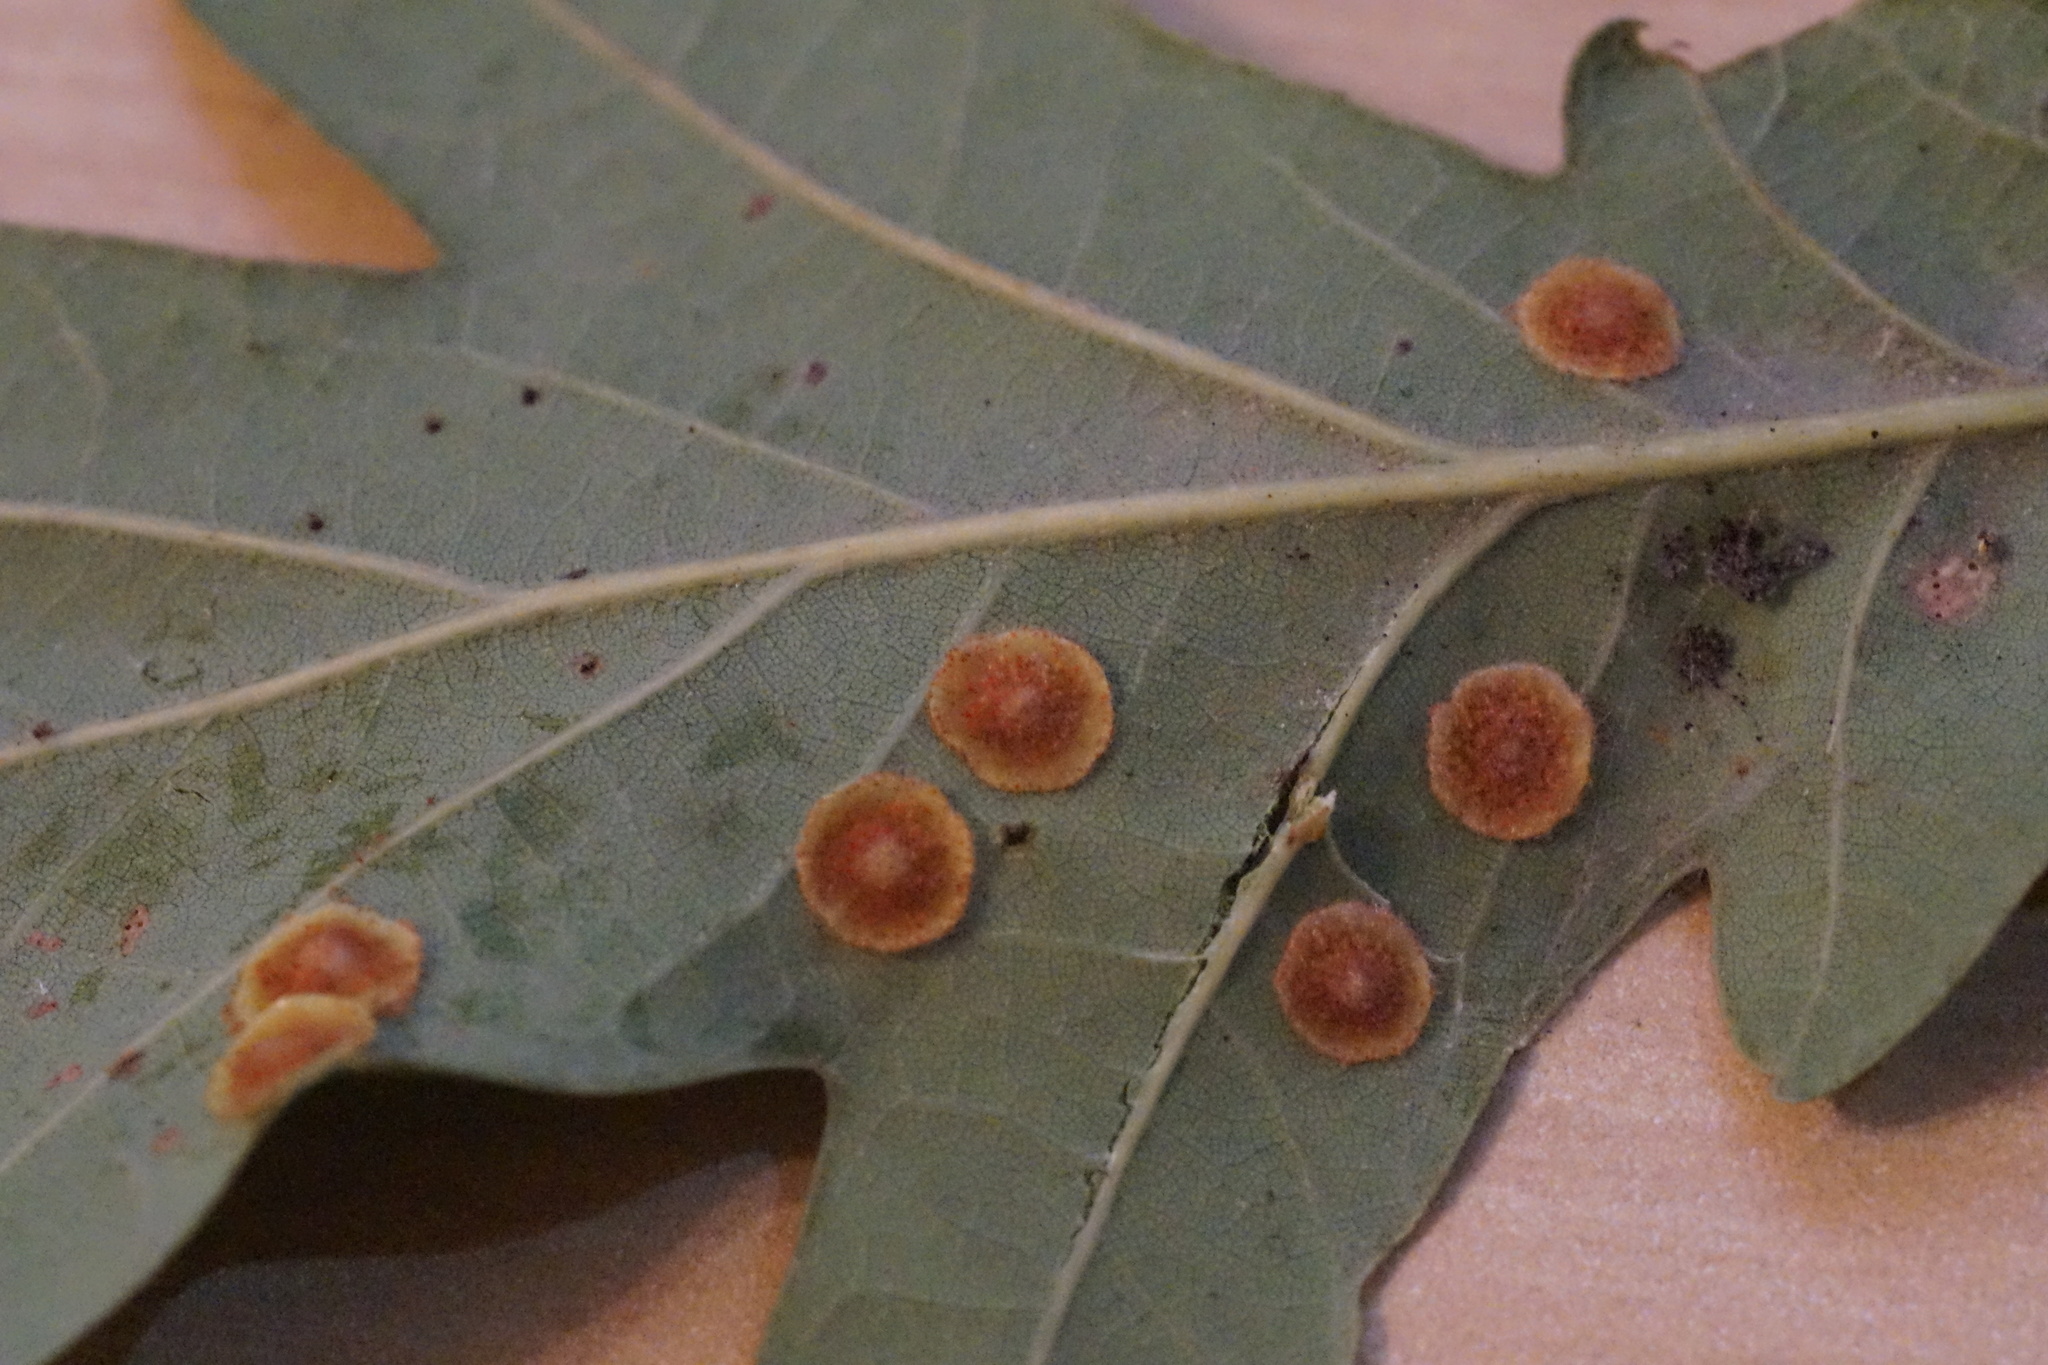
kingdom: Animalia
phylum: Arthropoda
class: Insecta
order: Hymenoptera
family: Cynipidae
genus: Neuroterus
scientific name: Neuroterus quercusbaccarum
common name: Common spangle gall
